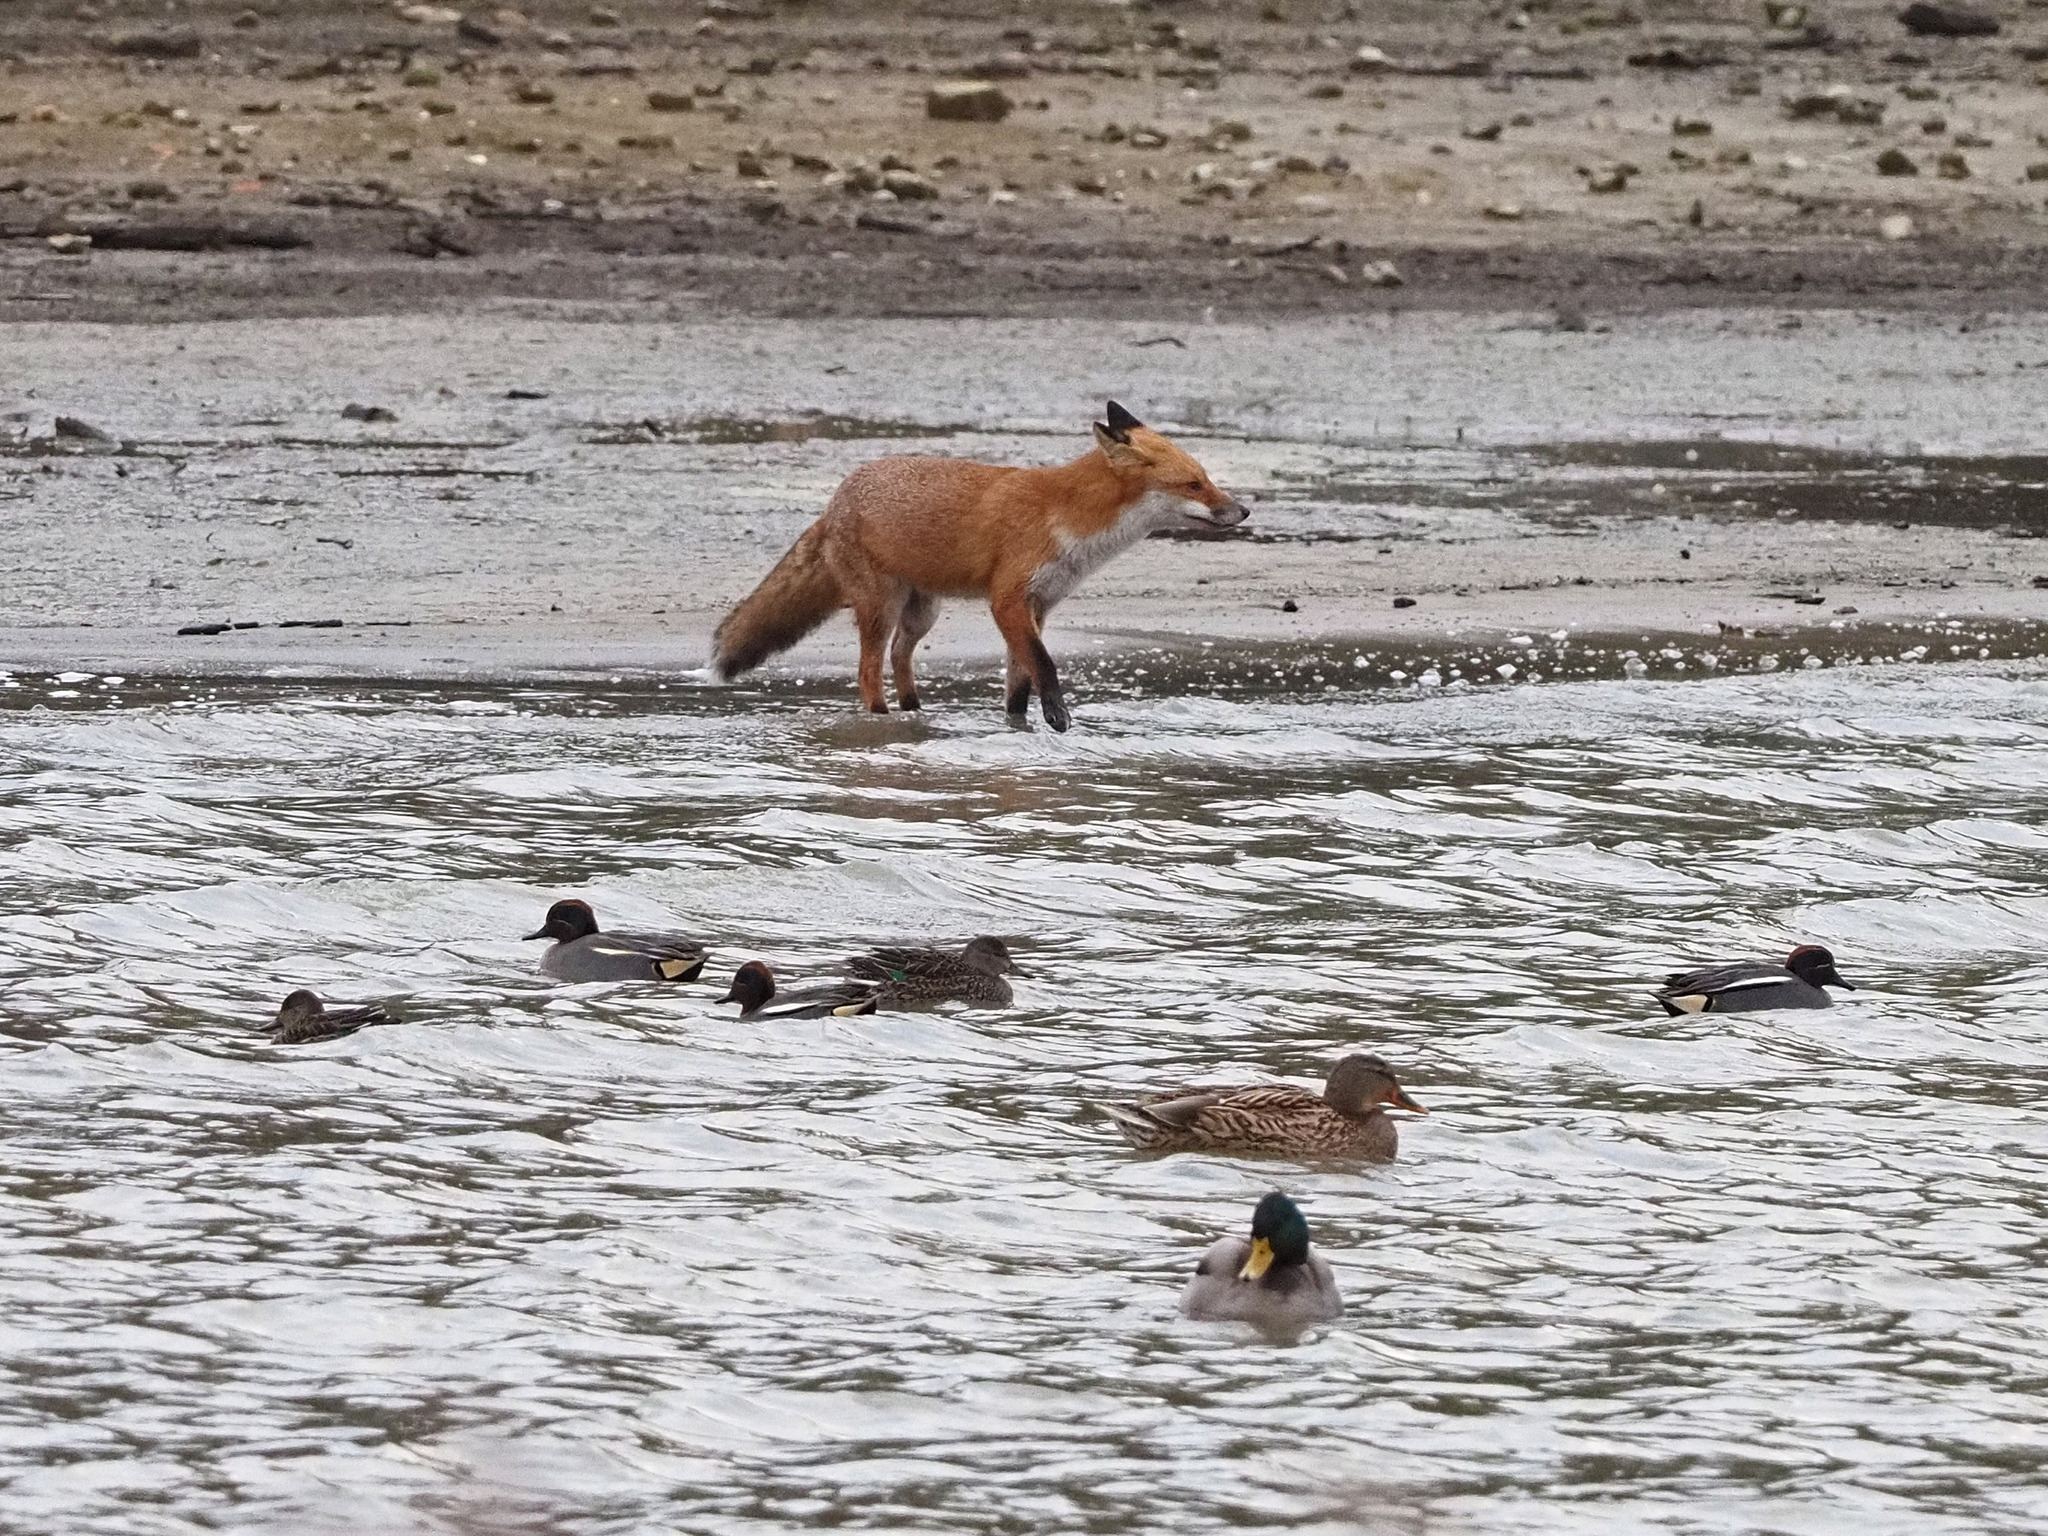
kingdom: Animalia
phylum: Chordata
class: Mammalia
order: Carnivora
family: Canidae
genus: Vulpes
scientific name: Vulpes vulpes
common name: Red fox
